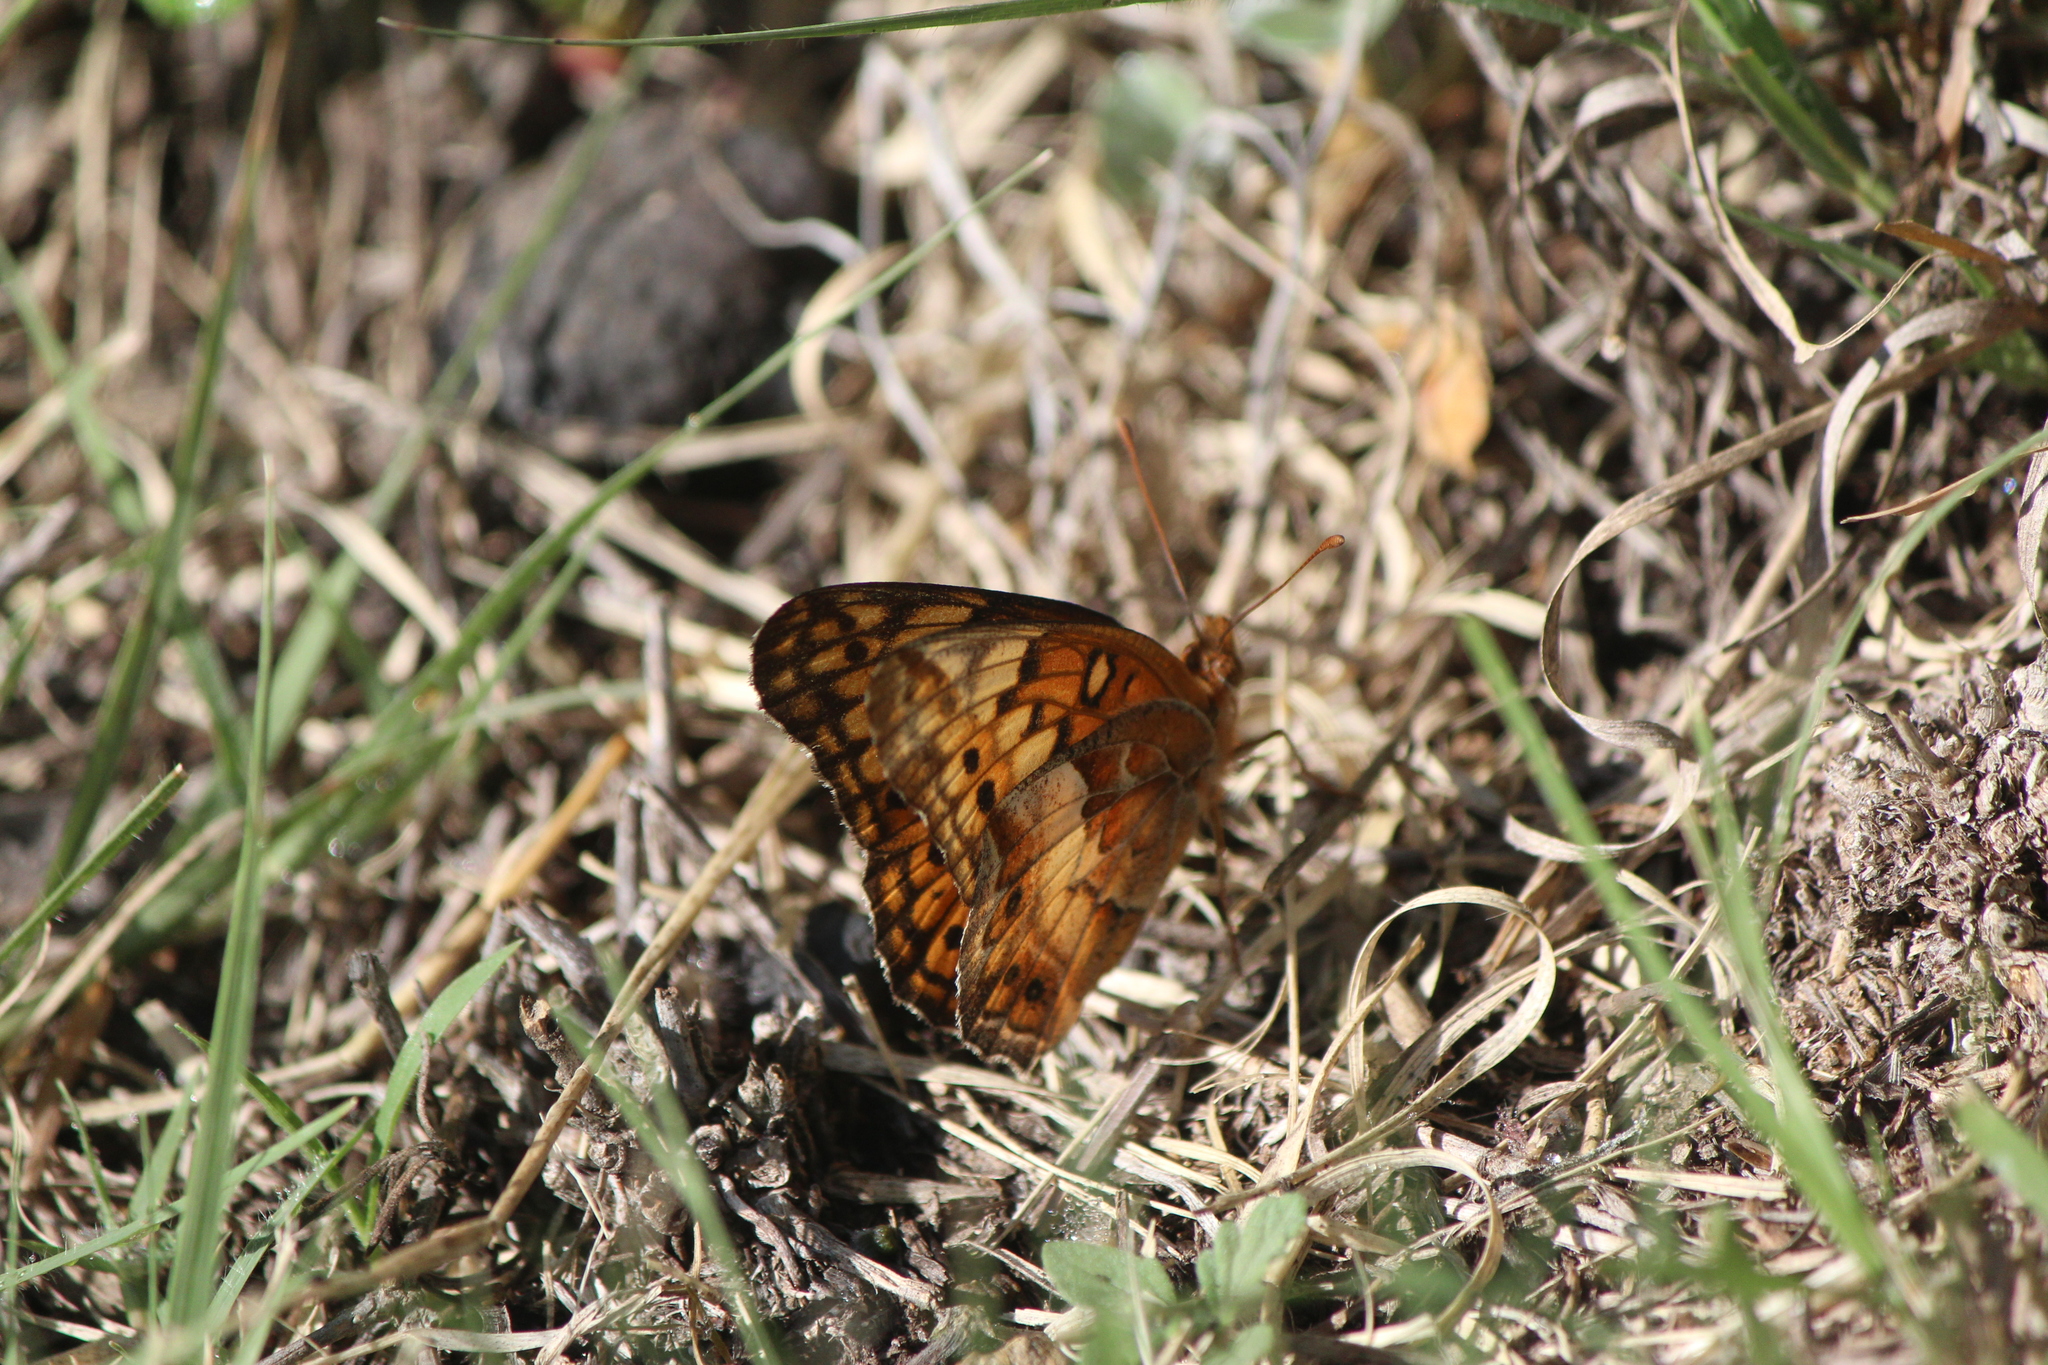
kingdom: Animalia
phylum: Arthropoda
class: Insecta
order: Lepidoptera
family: Nymphalidae
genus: Euptoieta
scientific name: Euptoieta claudia
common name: Variegated fritillary
